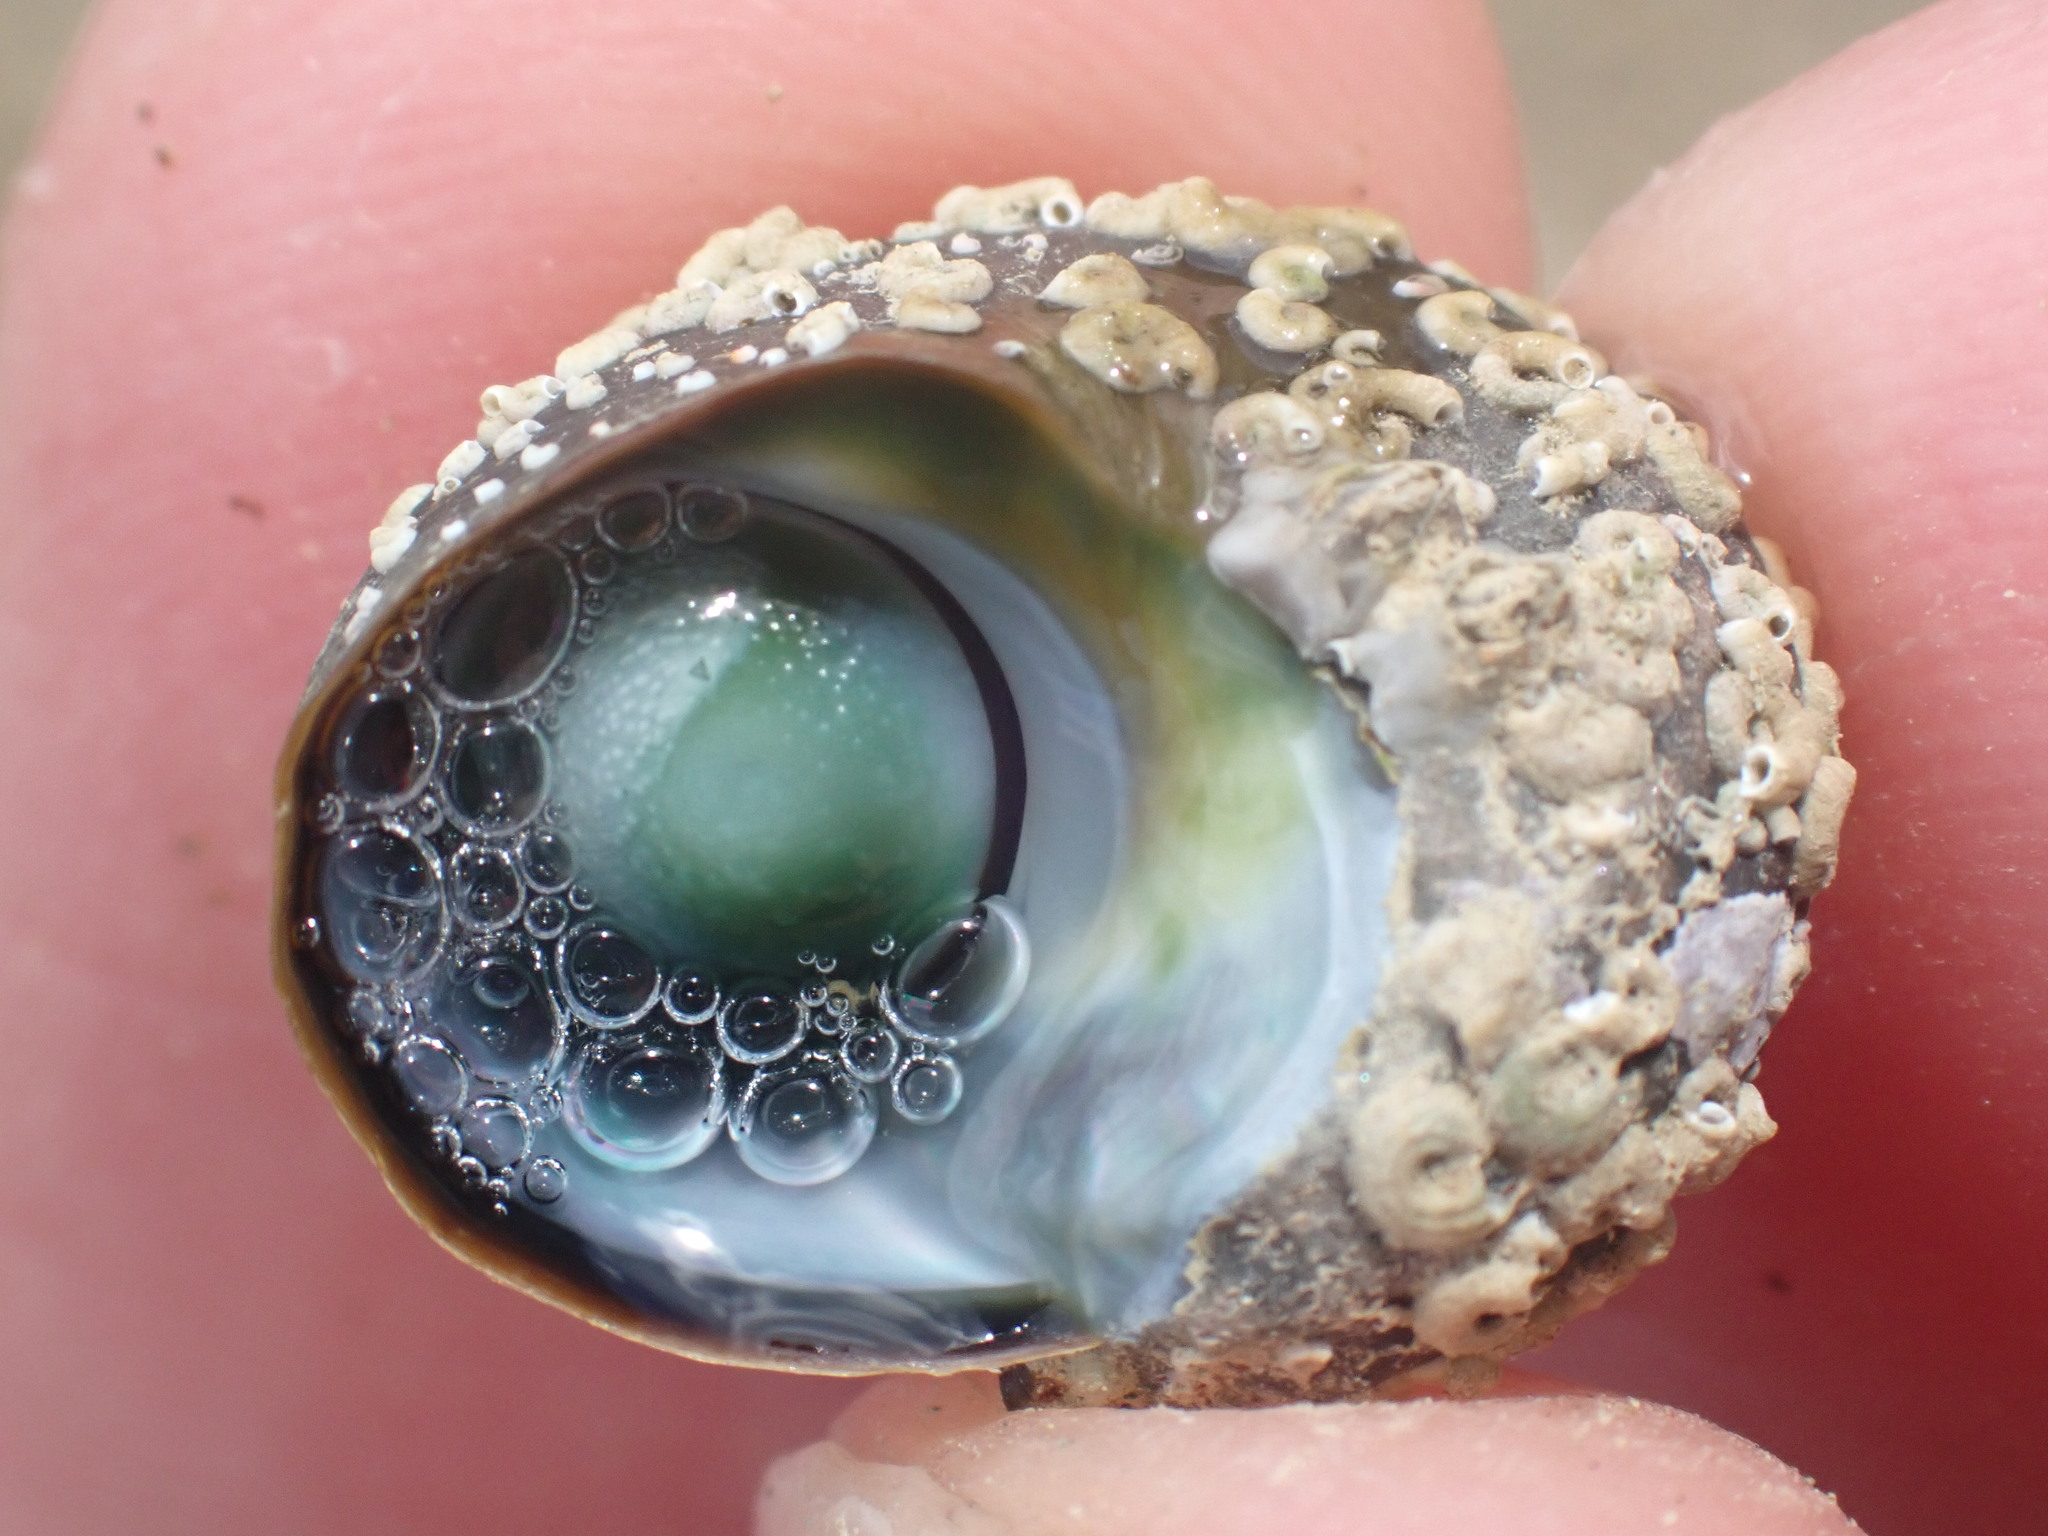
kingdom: Animalia
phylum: Mollusca
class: Gastropoda
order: Trochida
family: Turbinidae
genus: Lunella
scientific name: Lunella smaragda
